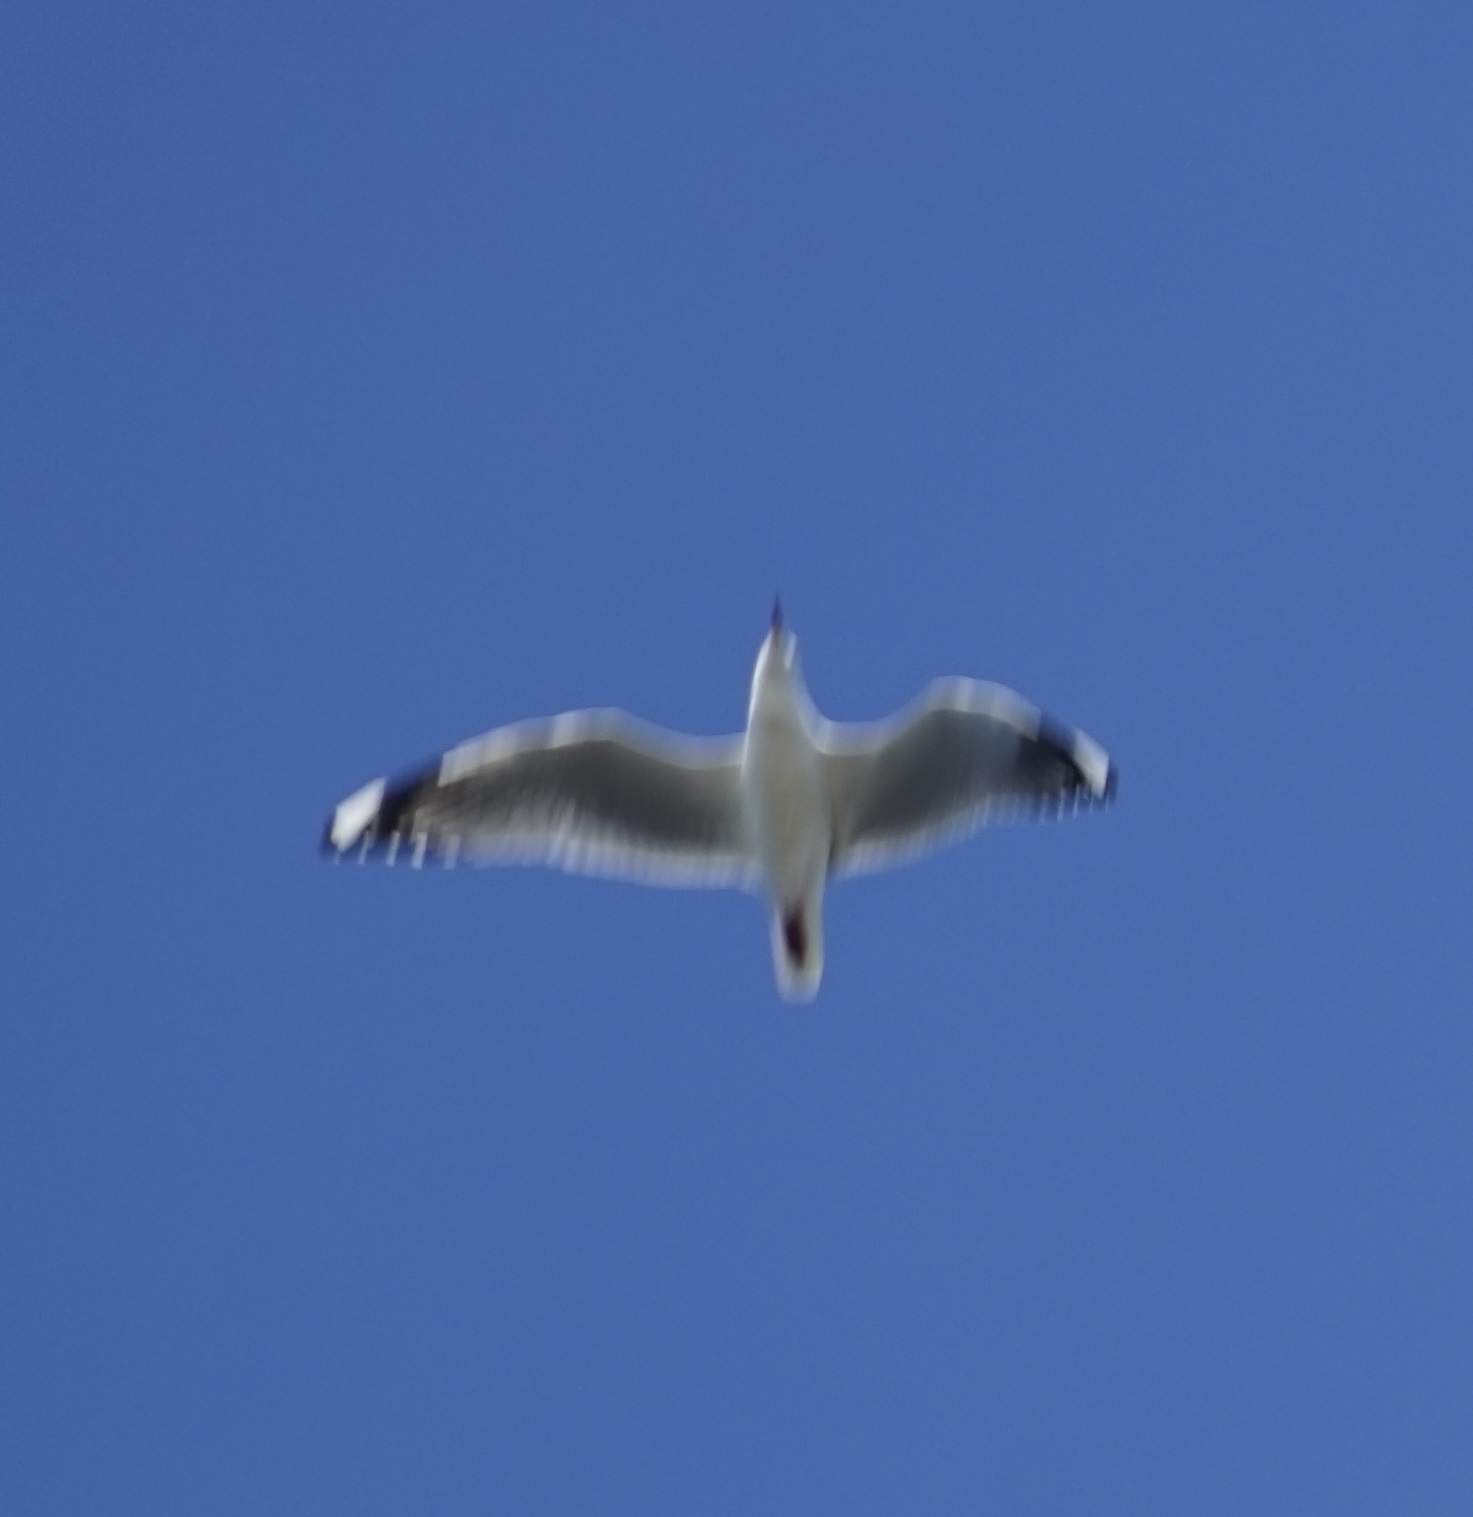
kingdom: Animalia
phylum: Chordata
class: Aves
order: Charadriiformes
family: Laridae
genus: Chroicocephalus
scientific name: Chroicocephalus novaehollandiae
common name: Silver gull
